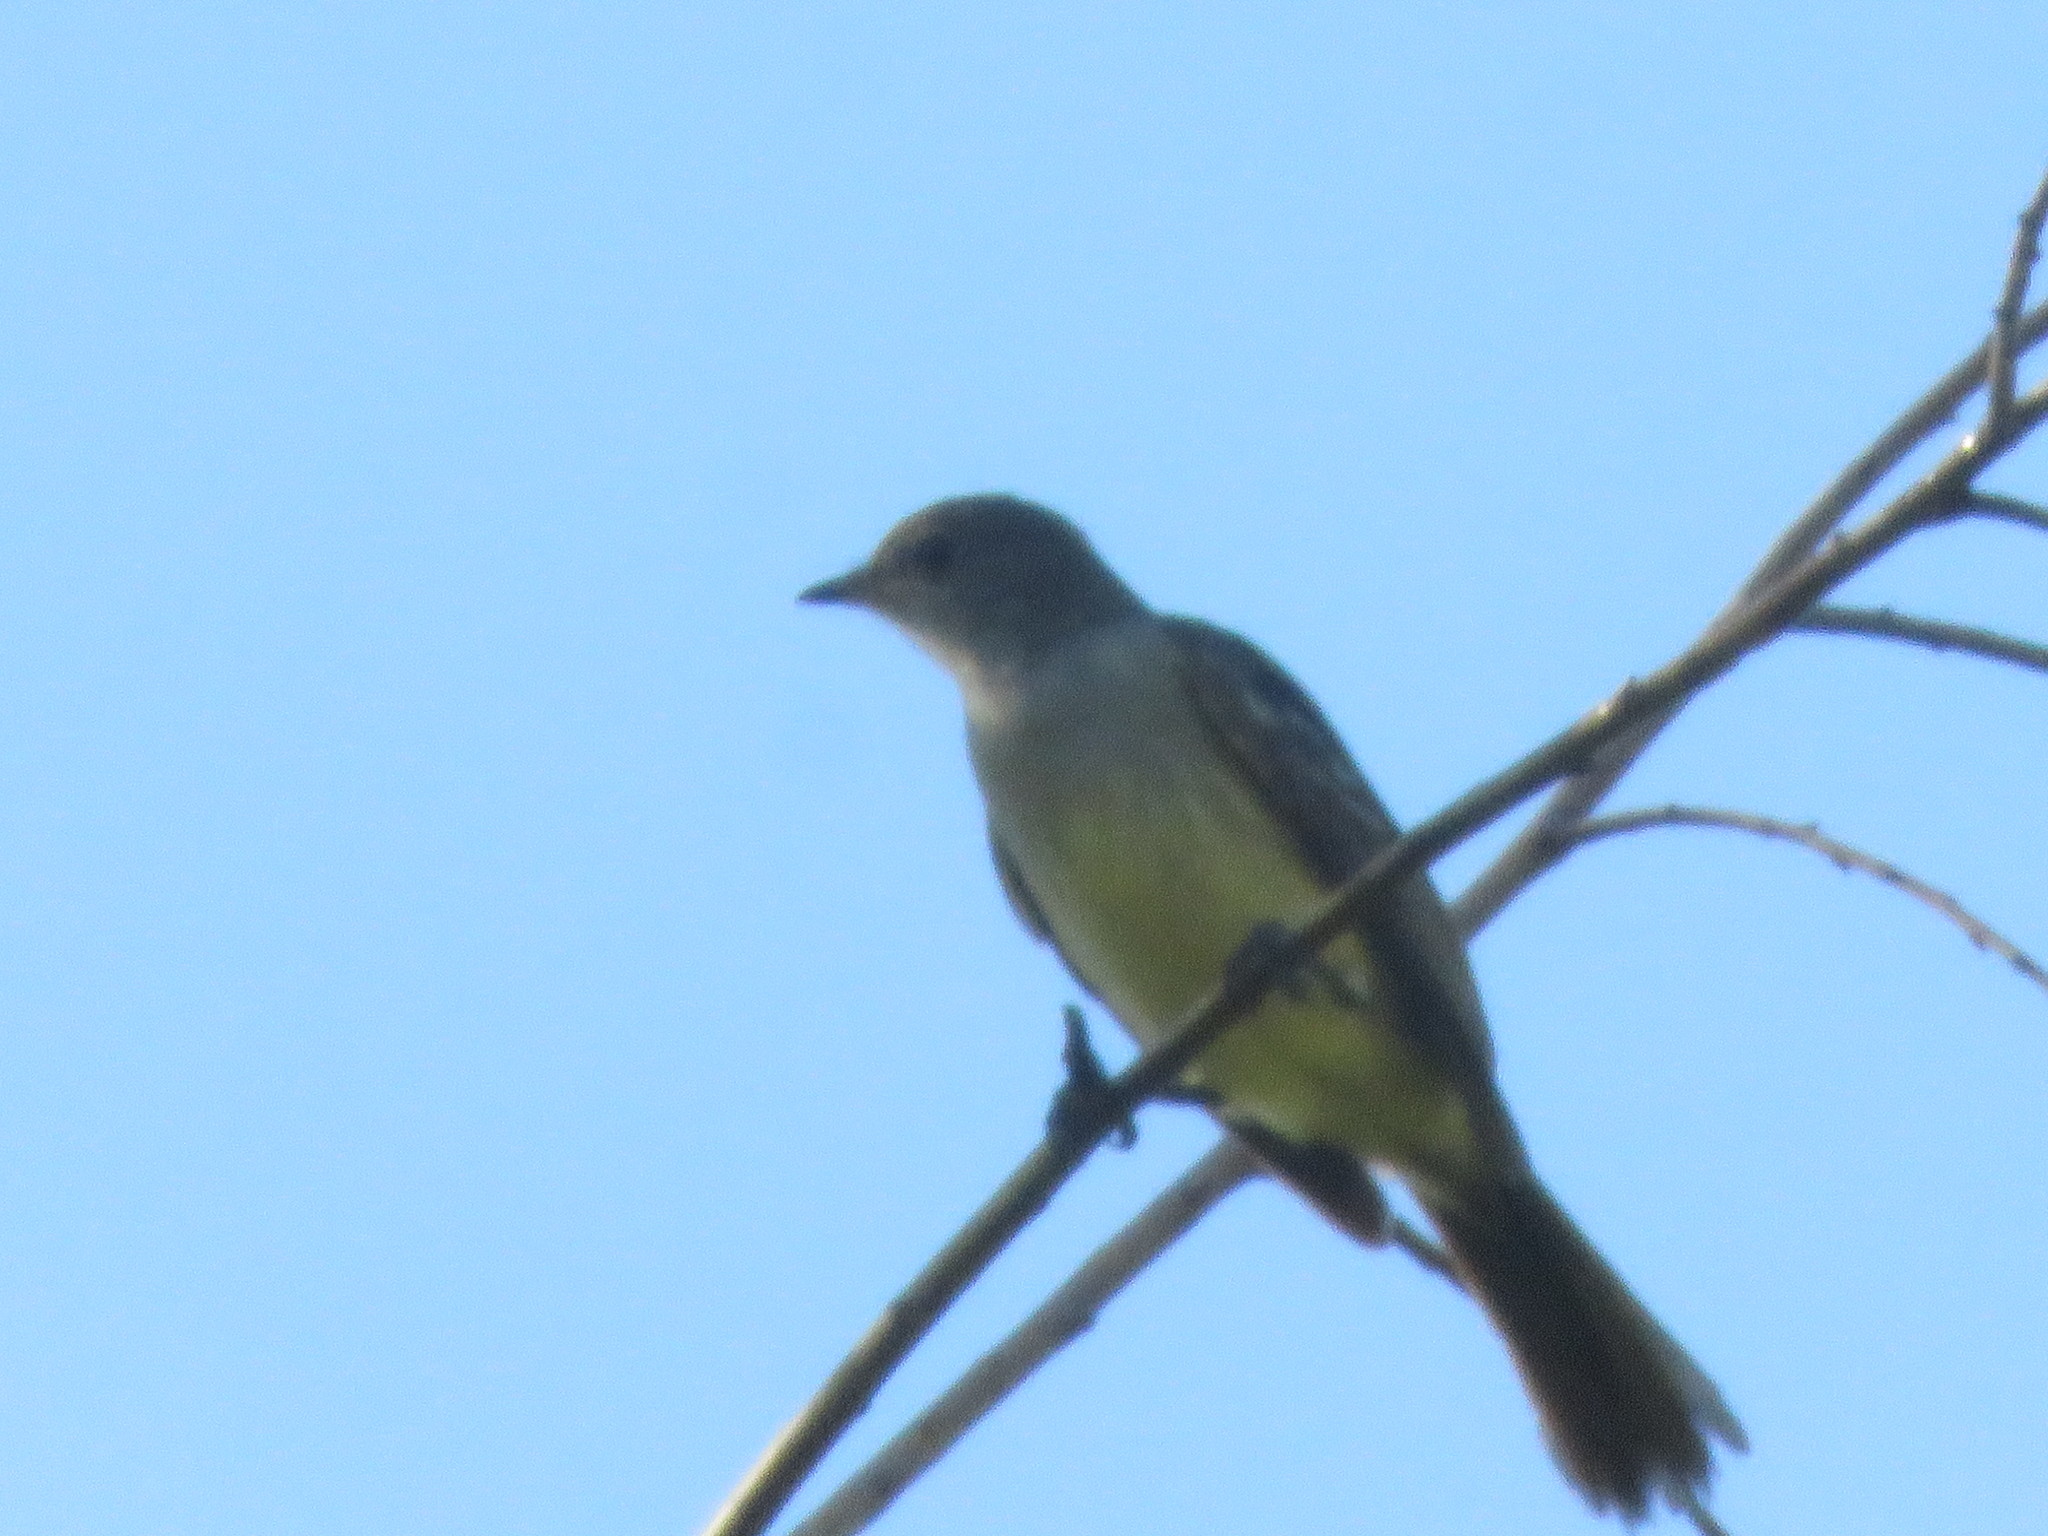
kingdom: Animalia
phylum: Chordata
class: Aves
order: Passeriformes
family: Tyrannidae
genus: Elaenia
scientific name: Elaenia spectabilis
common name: Large elaenia
